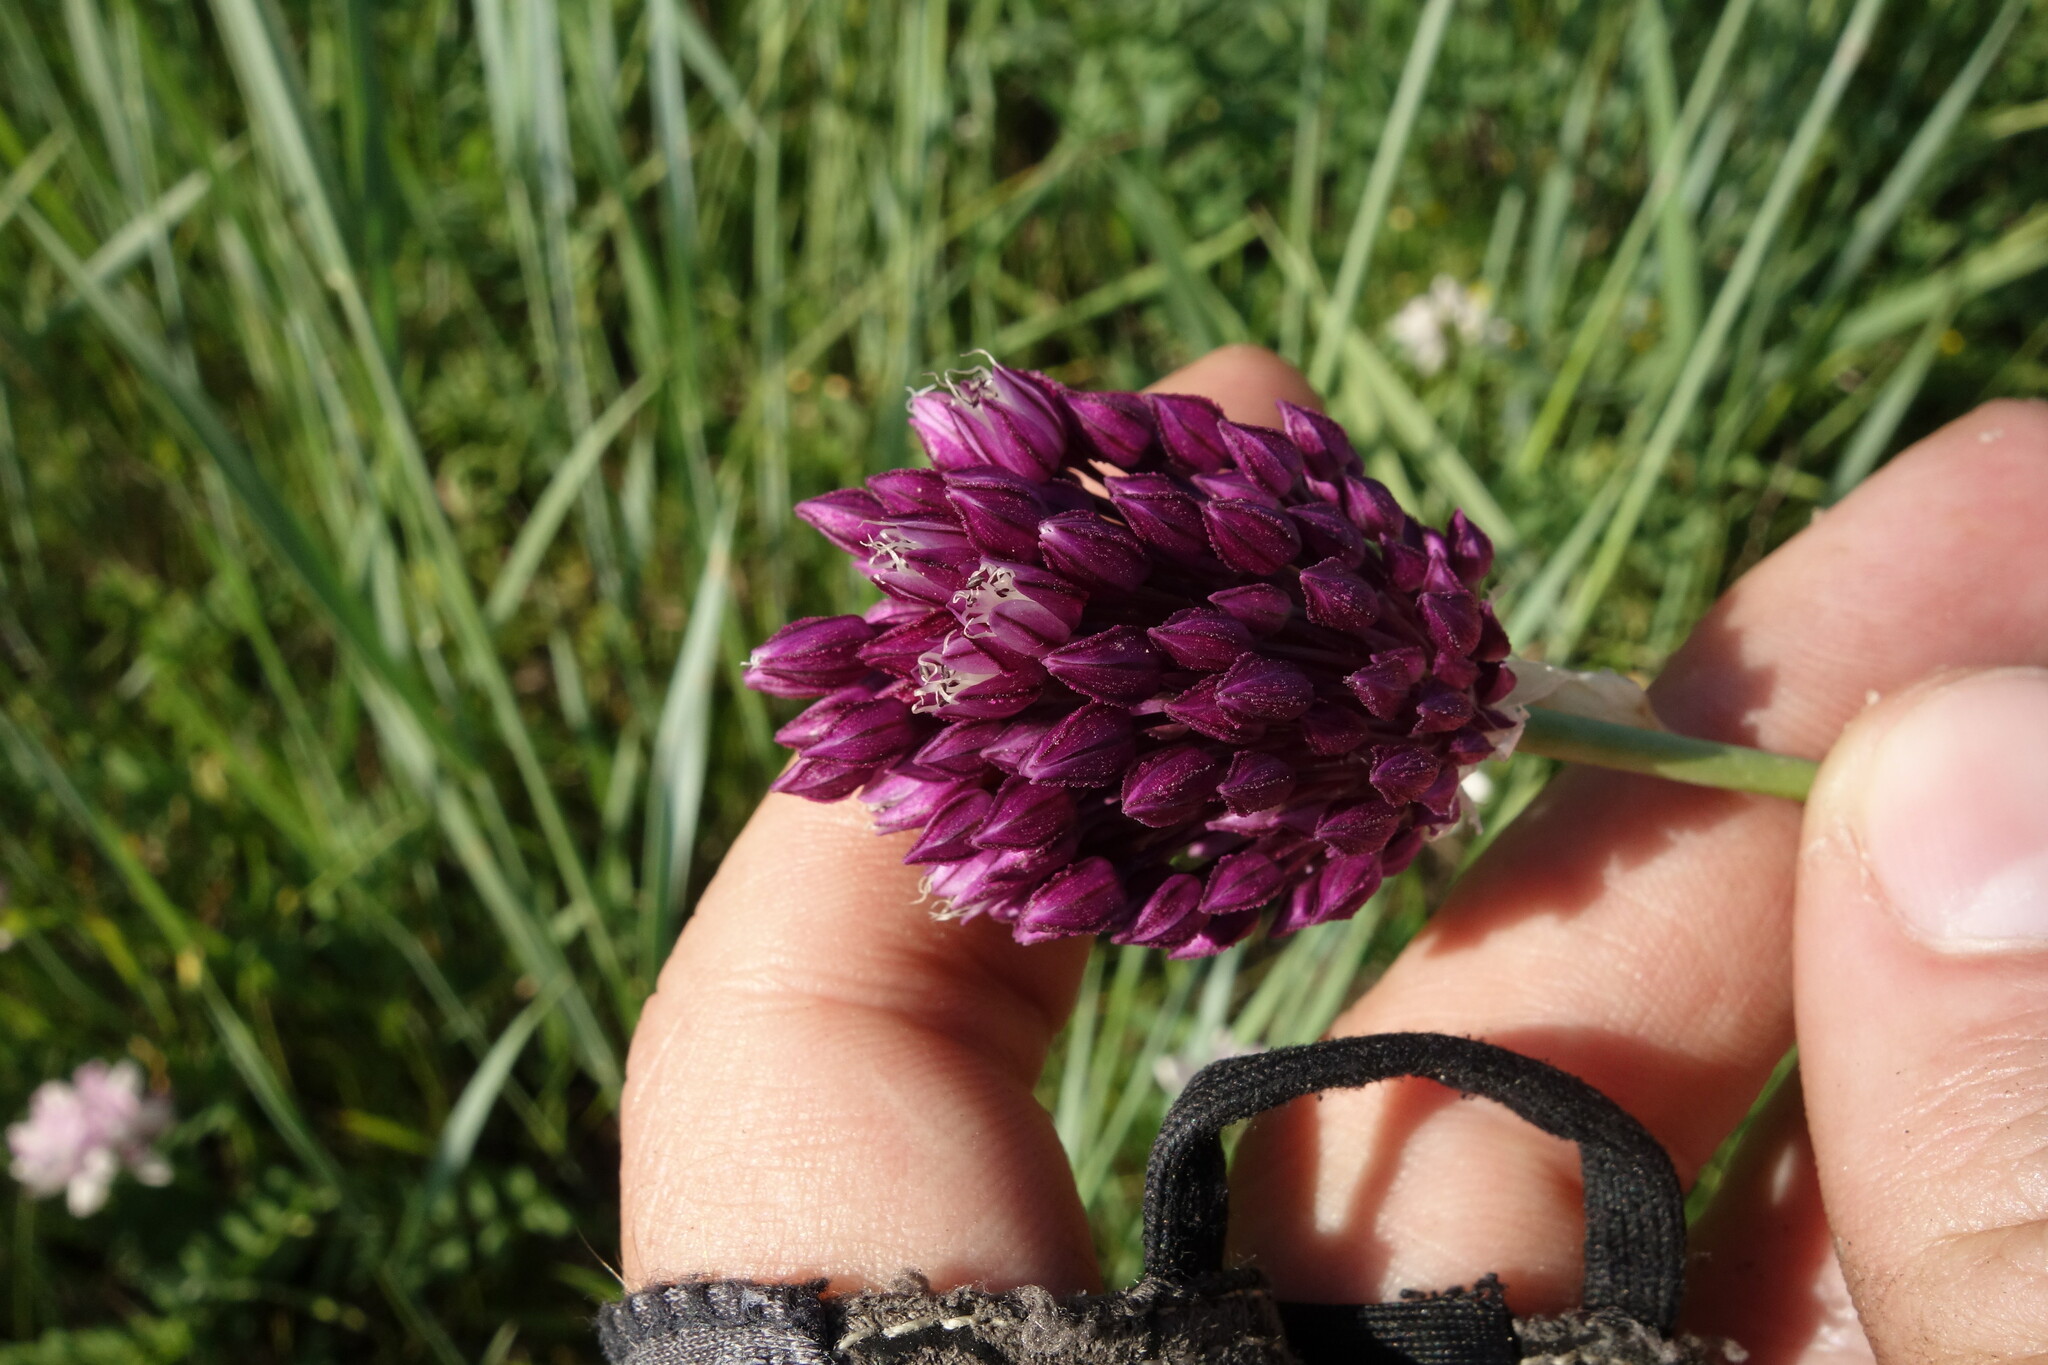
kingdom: Plantae
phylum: Tracheophyta
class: Liliopsida
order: Asparagales
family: Amaryllidaceae
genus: Allium
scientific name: Allium rotundum
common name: Sand leek
